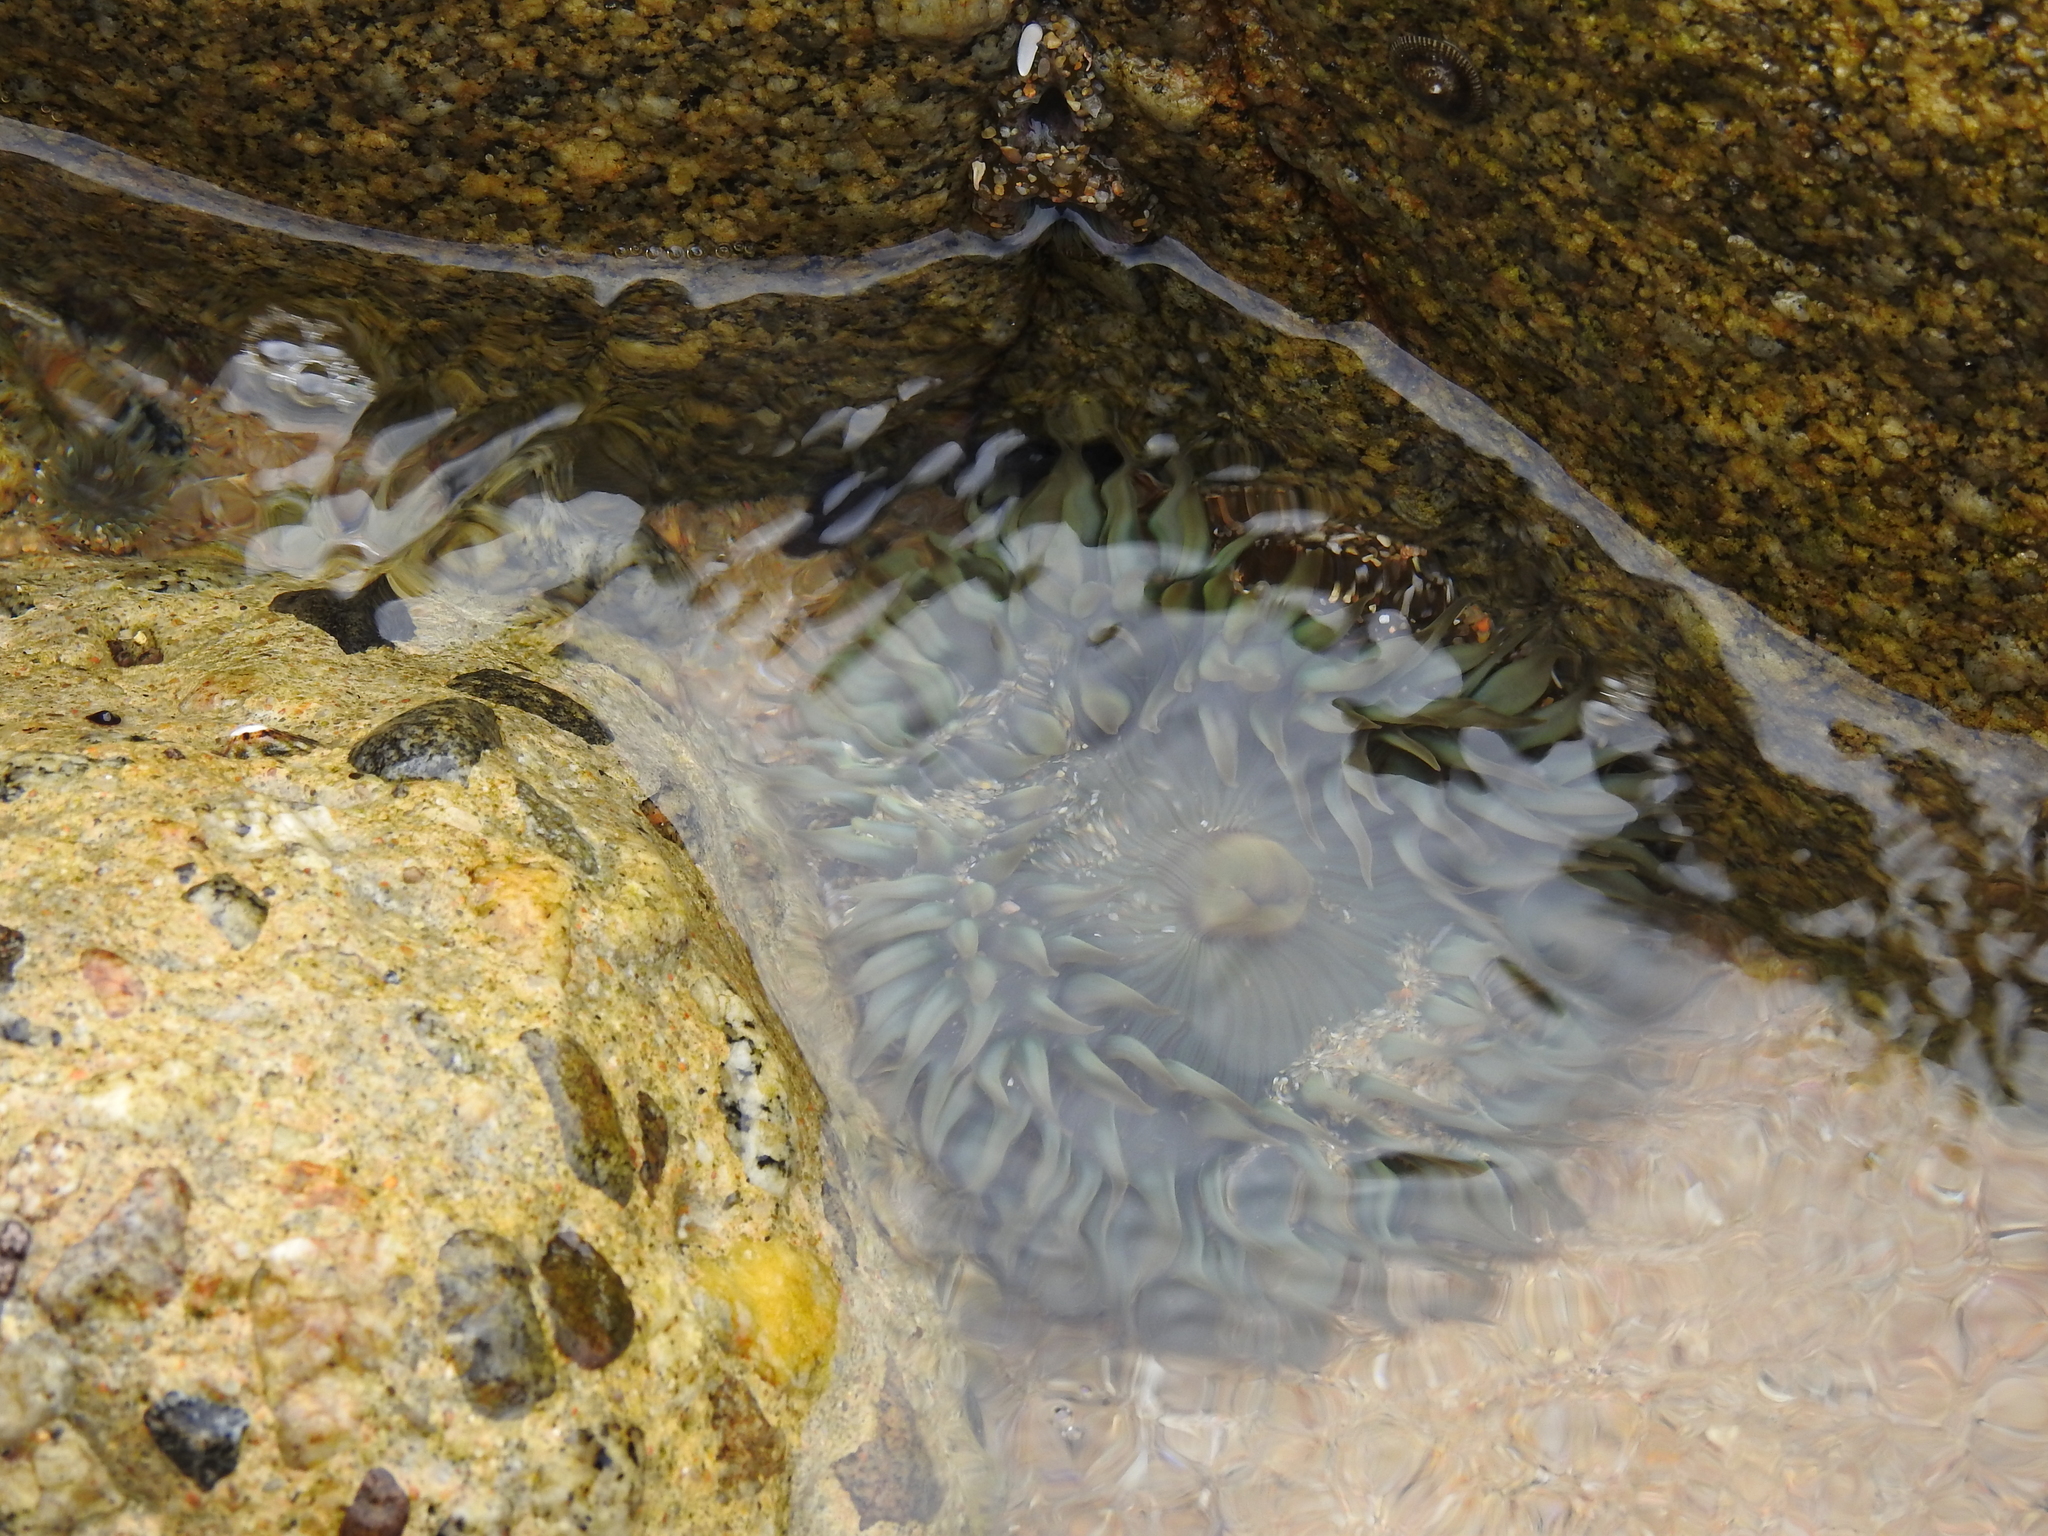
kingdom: Animalia
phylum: Cnidaria
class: Anthozoa
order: Actiniaria
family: Actiniidae
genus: Anthopleura
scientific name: Anthopleura sola
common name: Sun anemone
